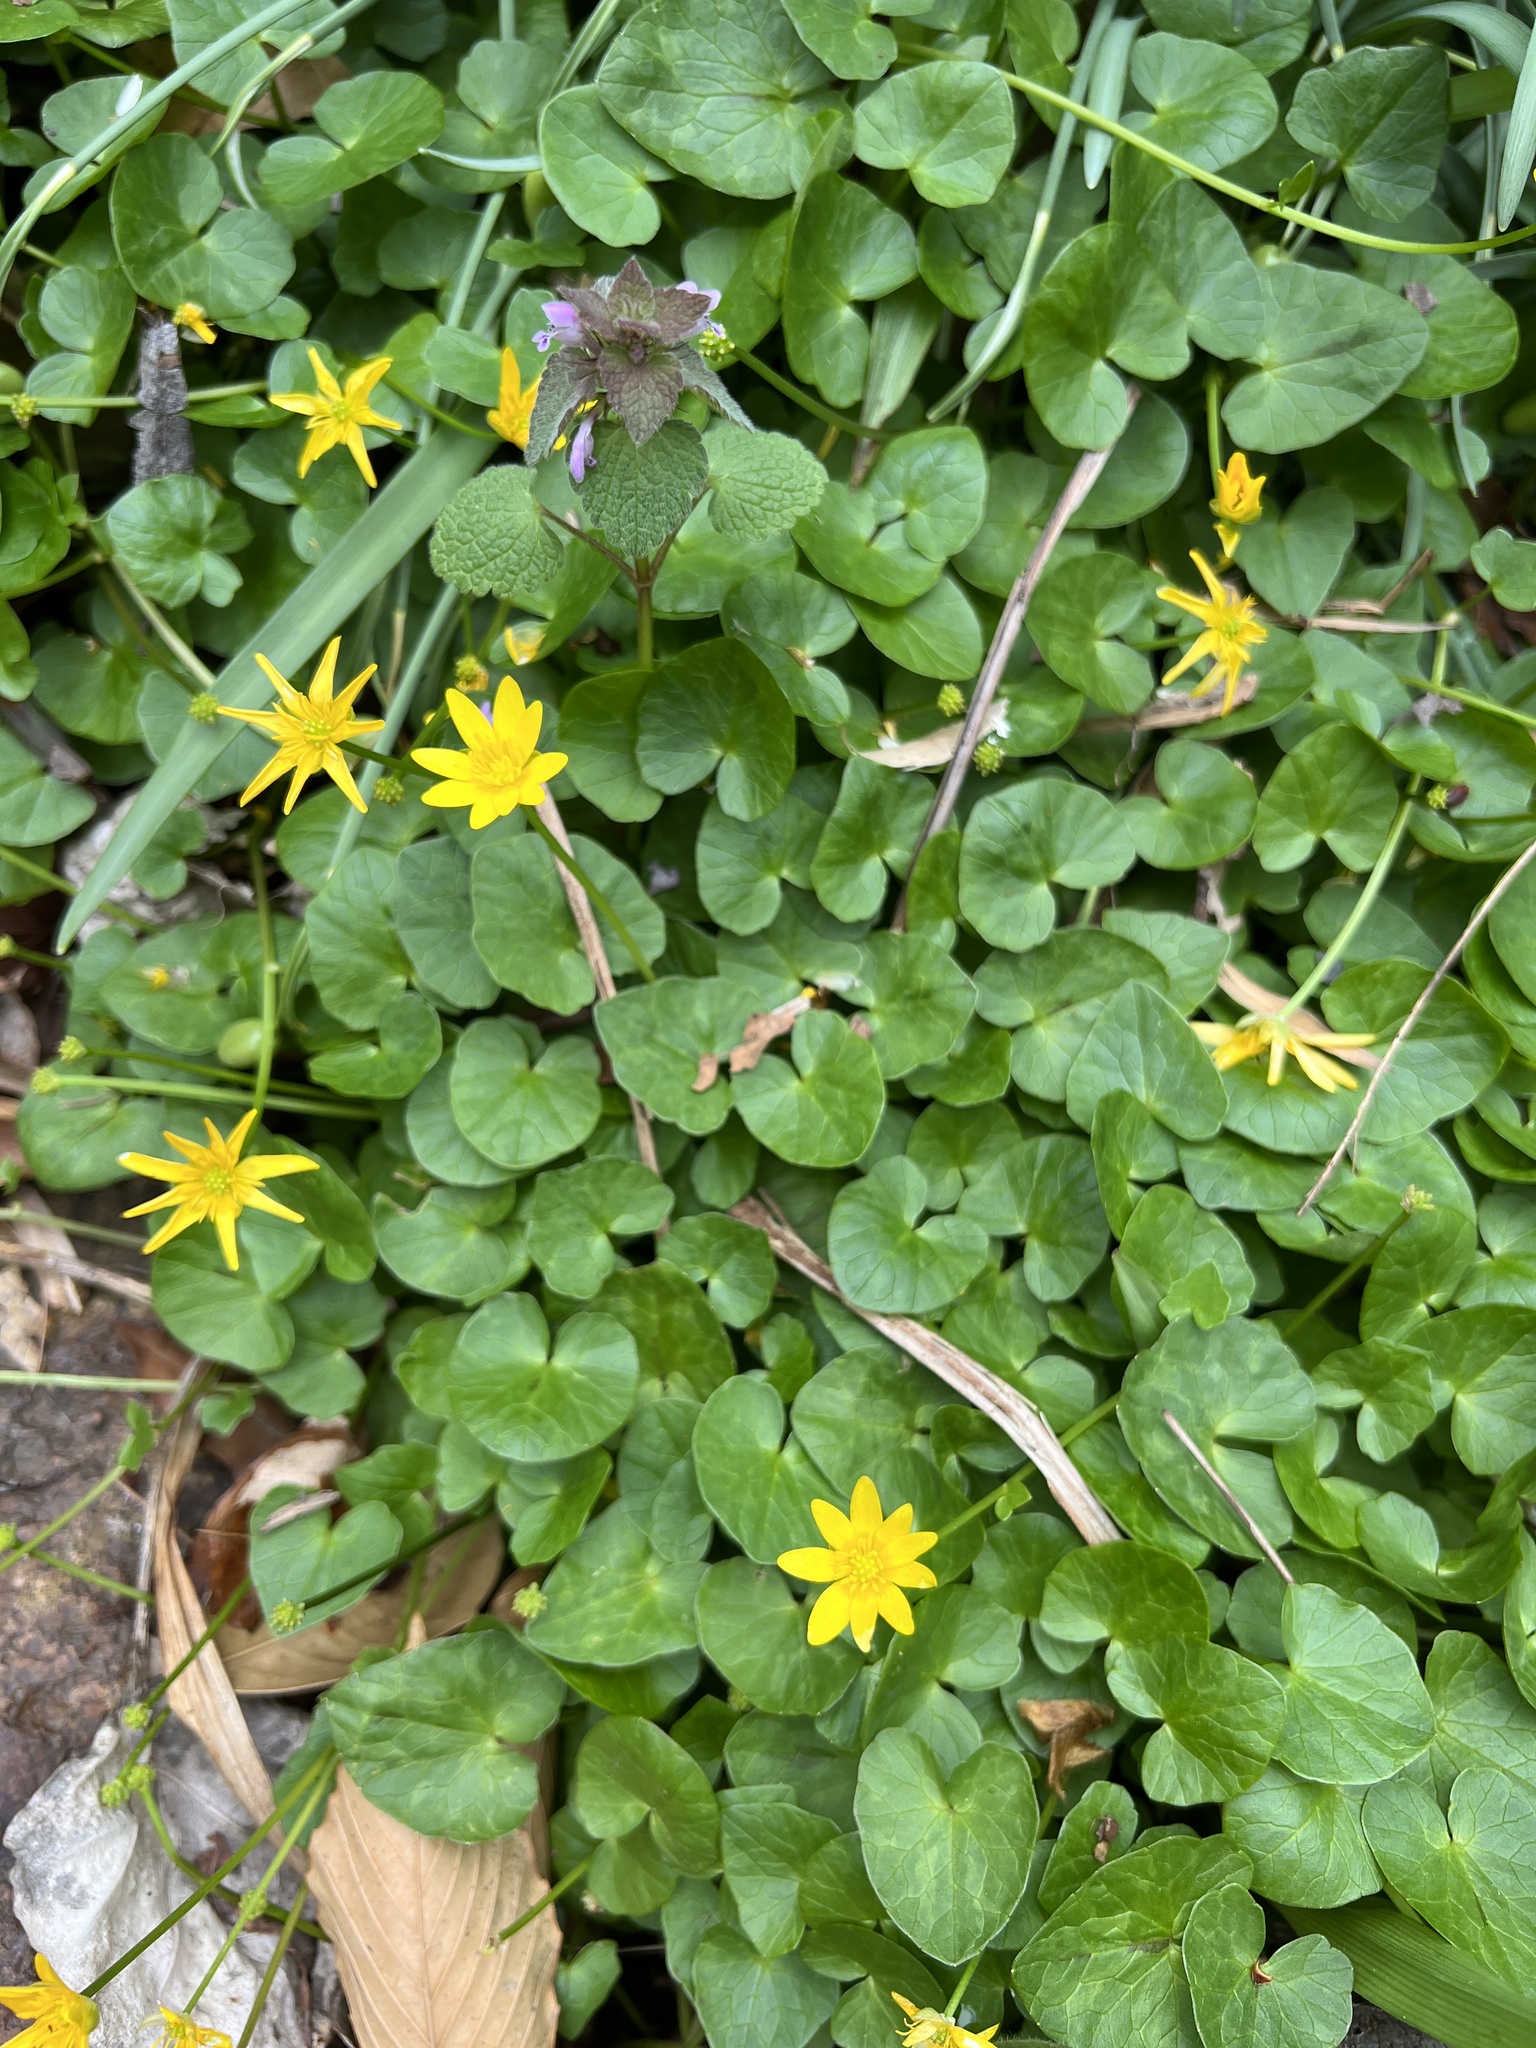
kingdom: Plantae
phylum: Tracheophyta
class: Magnoliopsida
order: Ranunculales
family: Ranunculaceae
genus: Ficaria
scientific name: Ficaria verna
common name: Lesser celandine
